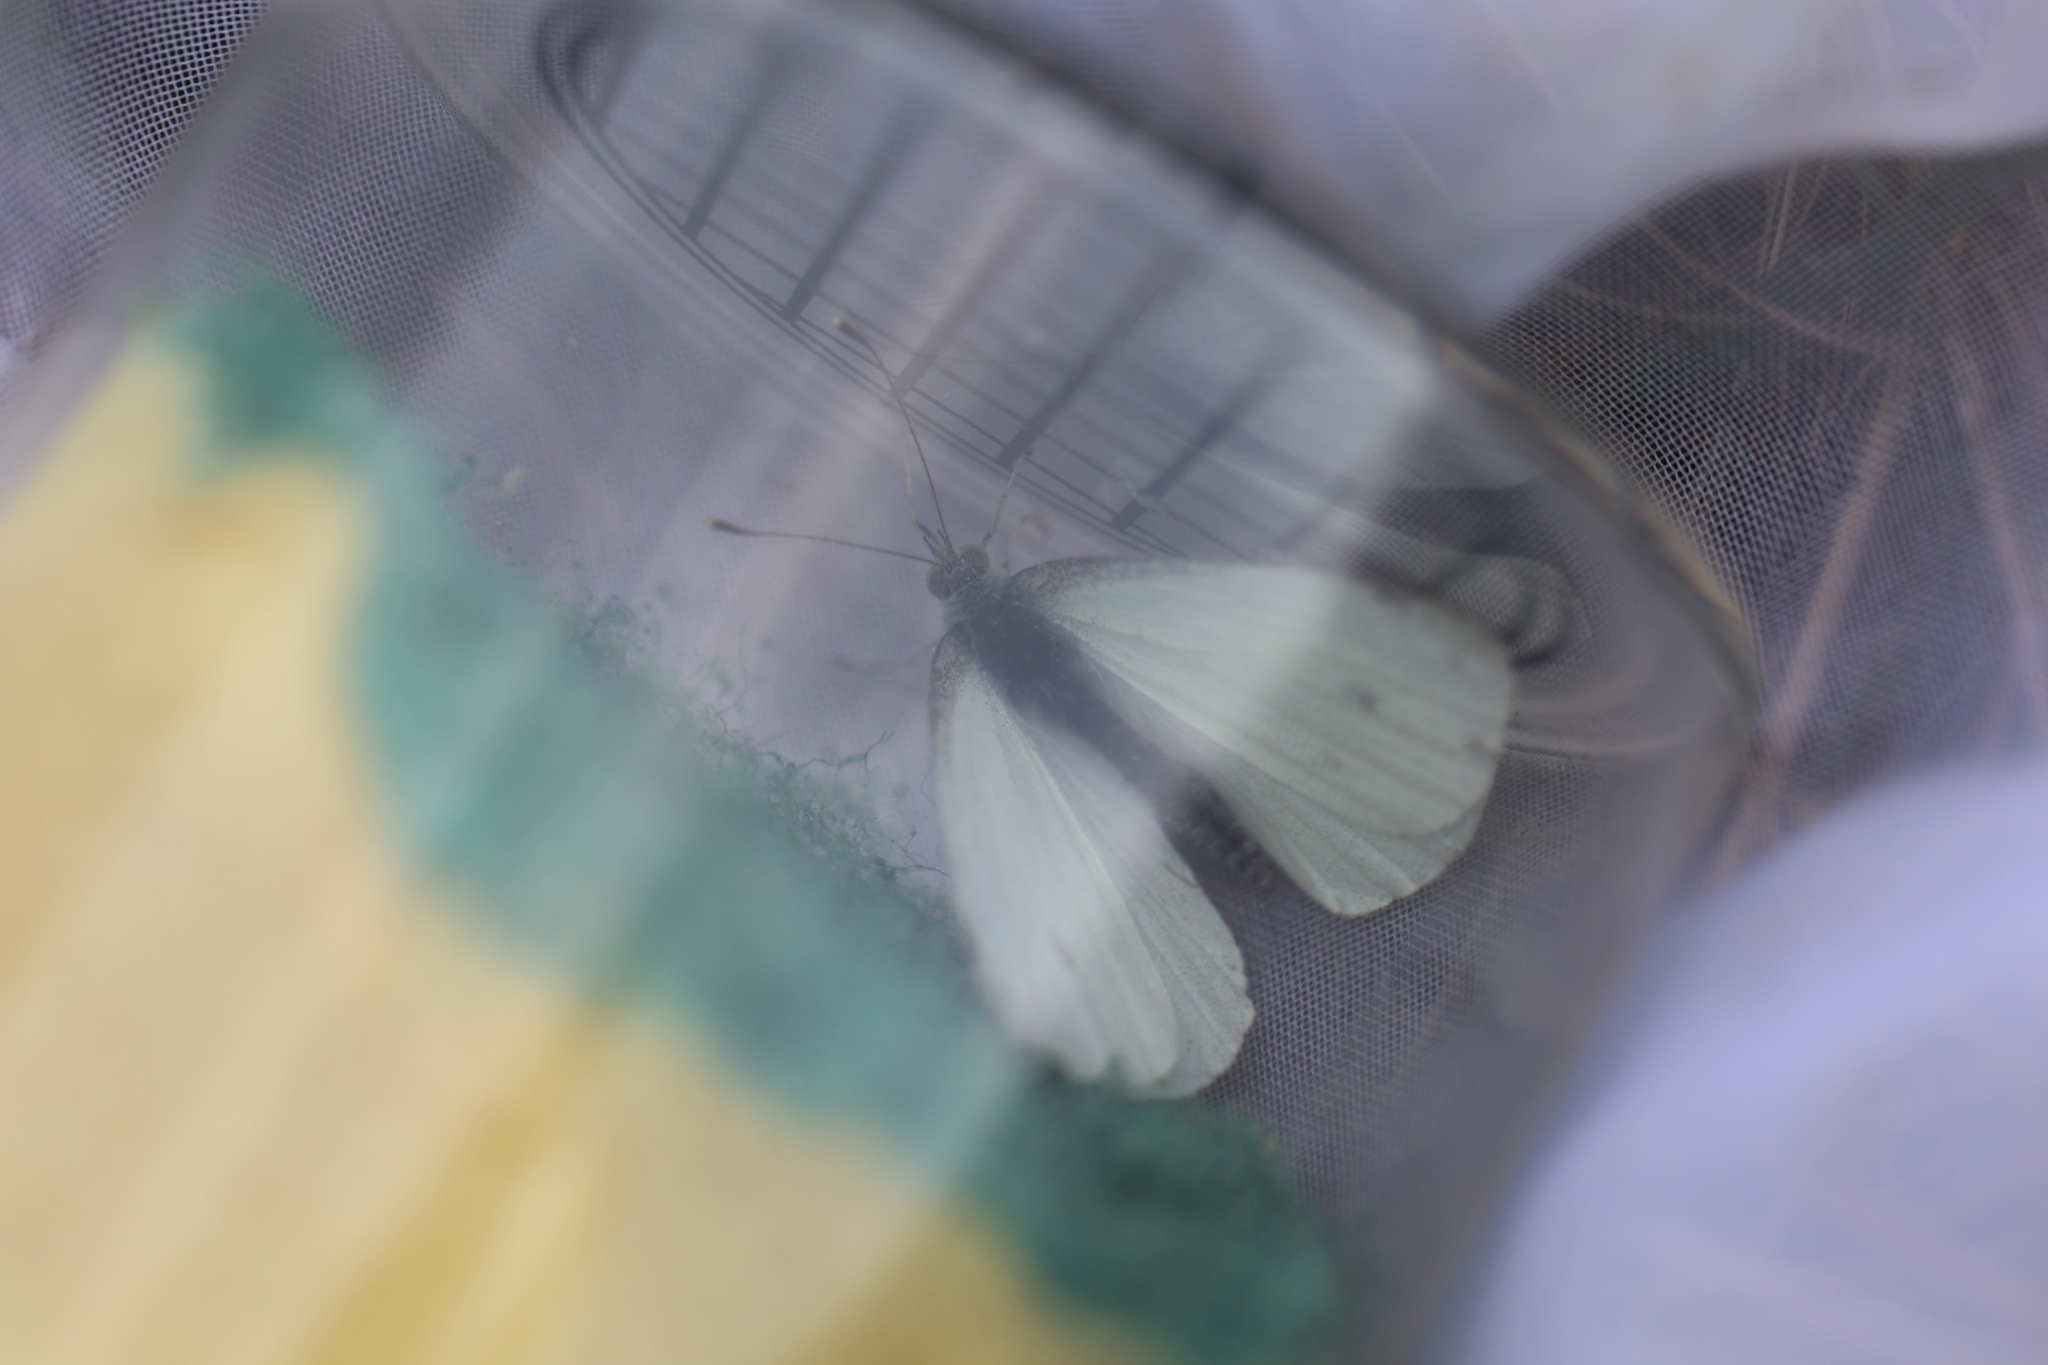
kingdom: Animalia
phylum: Arthropoda
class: Insecta
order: Lepidoptera
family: Pieridae
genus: Pieris
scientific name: Pieris rapae
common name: Small white
